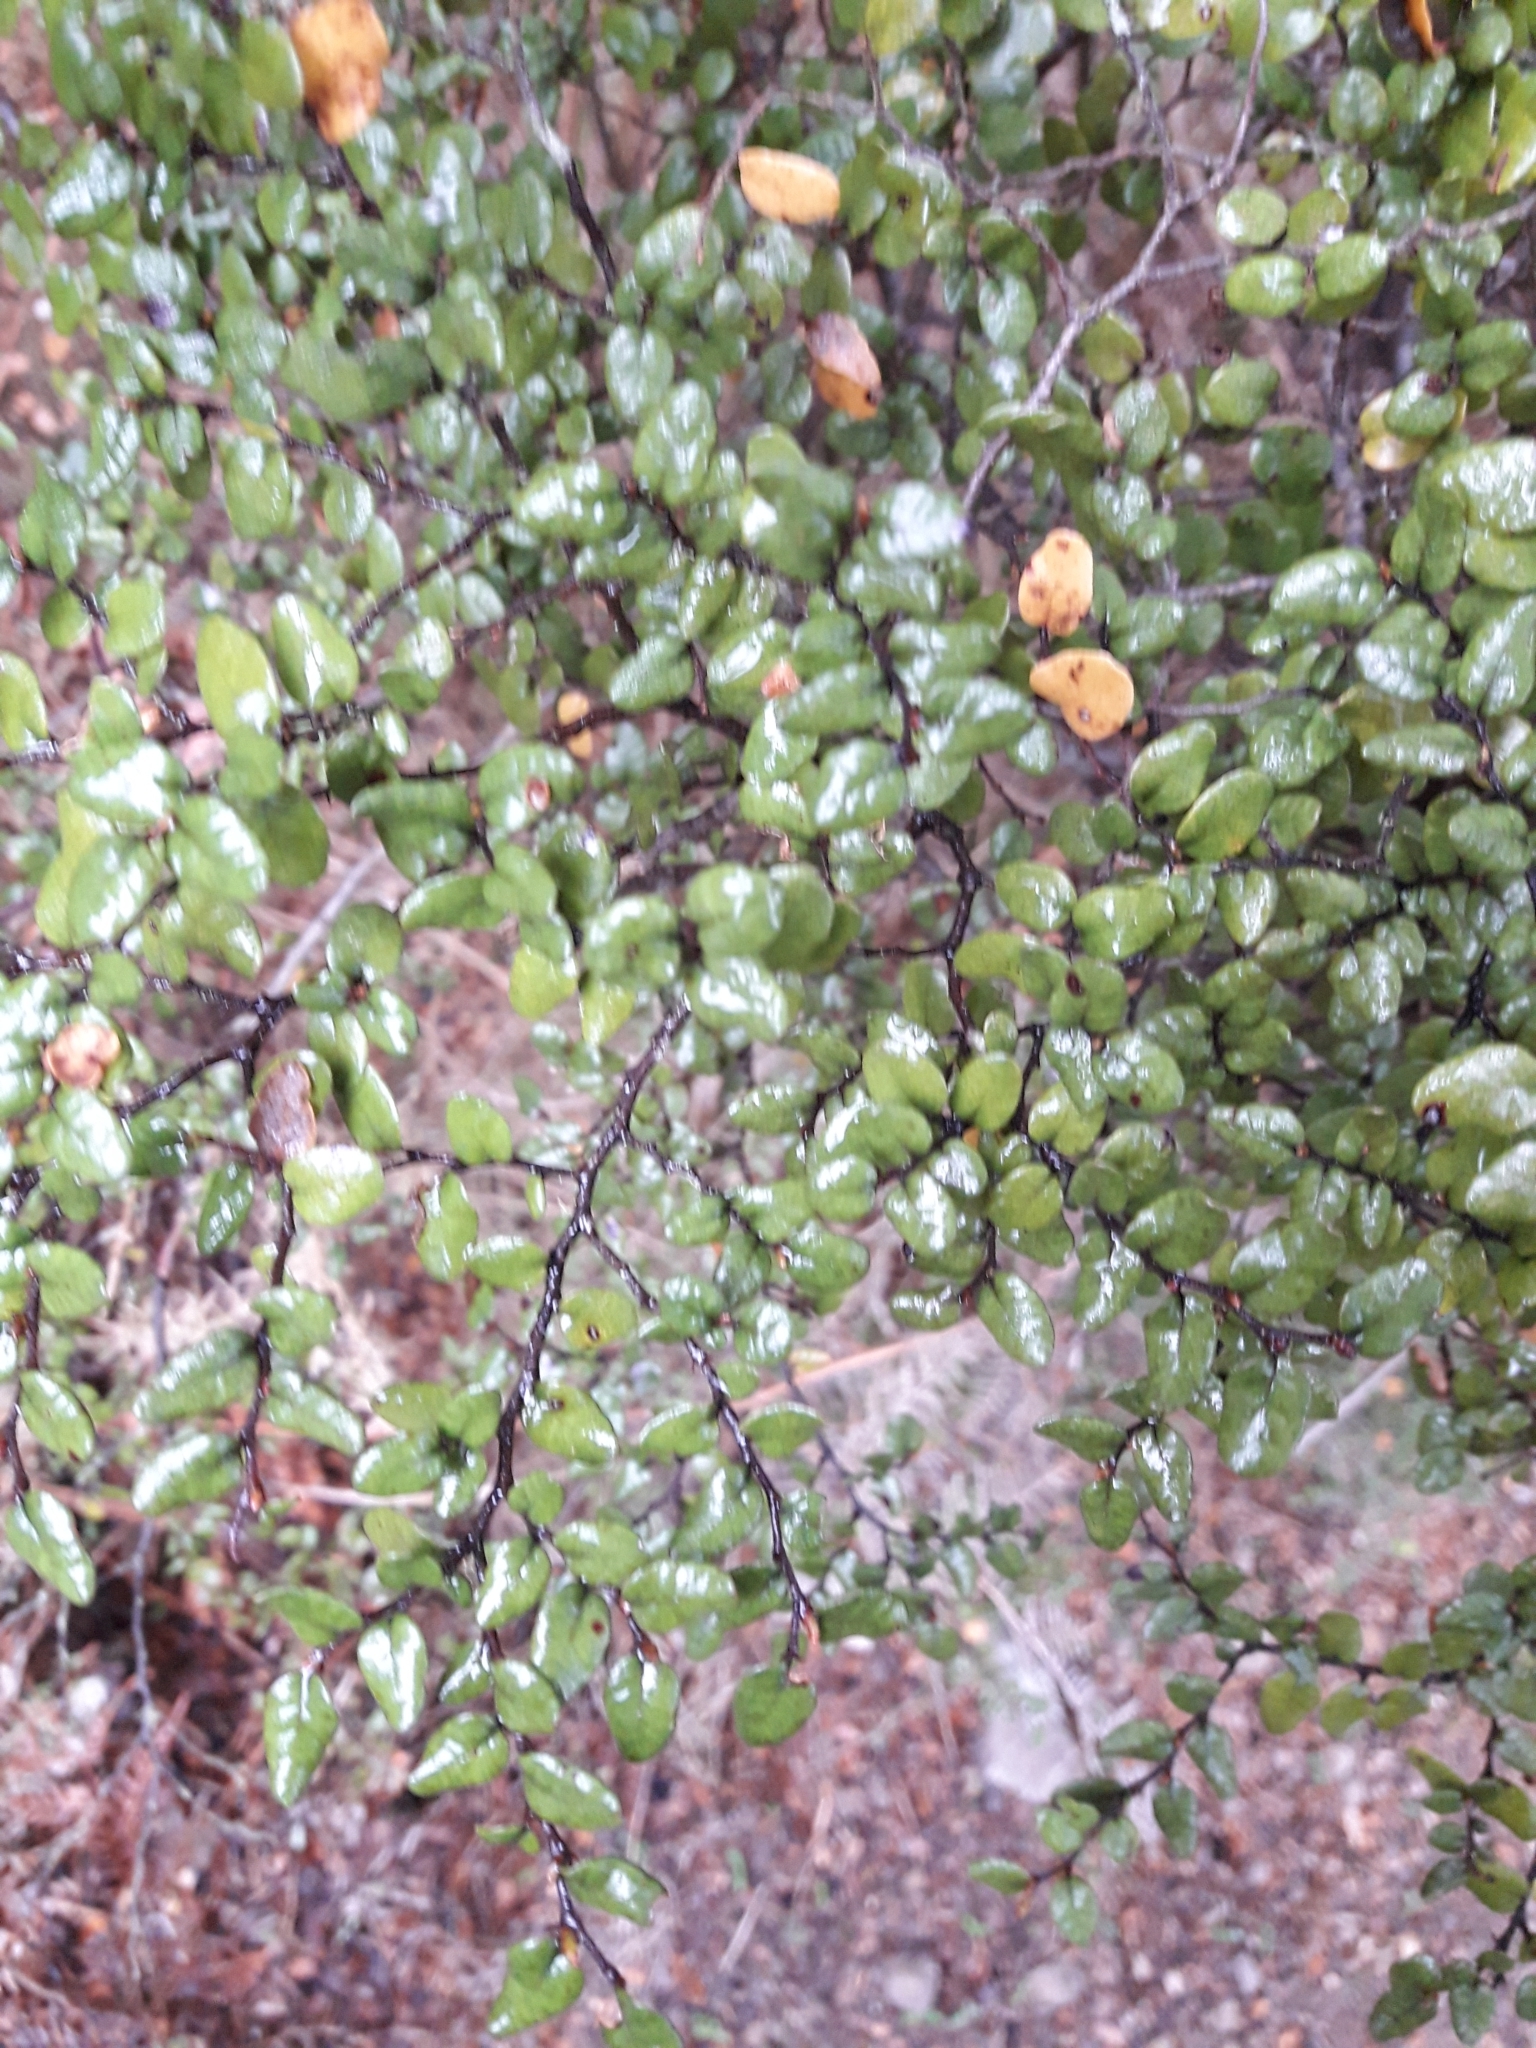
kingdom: Plantae
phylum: Tracheophyta
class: Magnoliopsida
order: Fagales
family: Nothofagaceae
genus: Nothofagus
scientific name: Nothofagus cliffortioides
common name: Mountain beech
